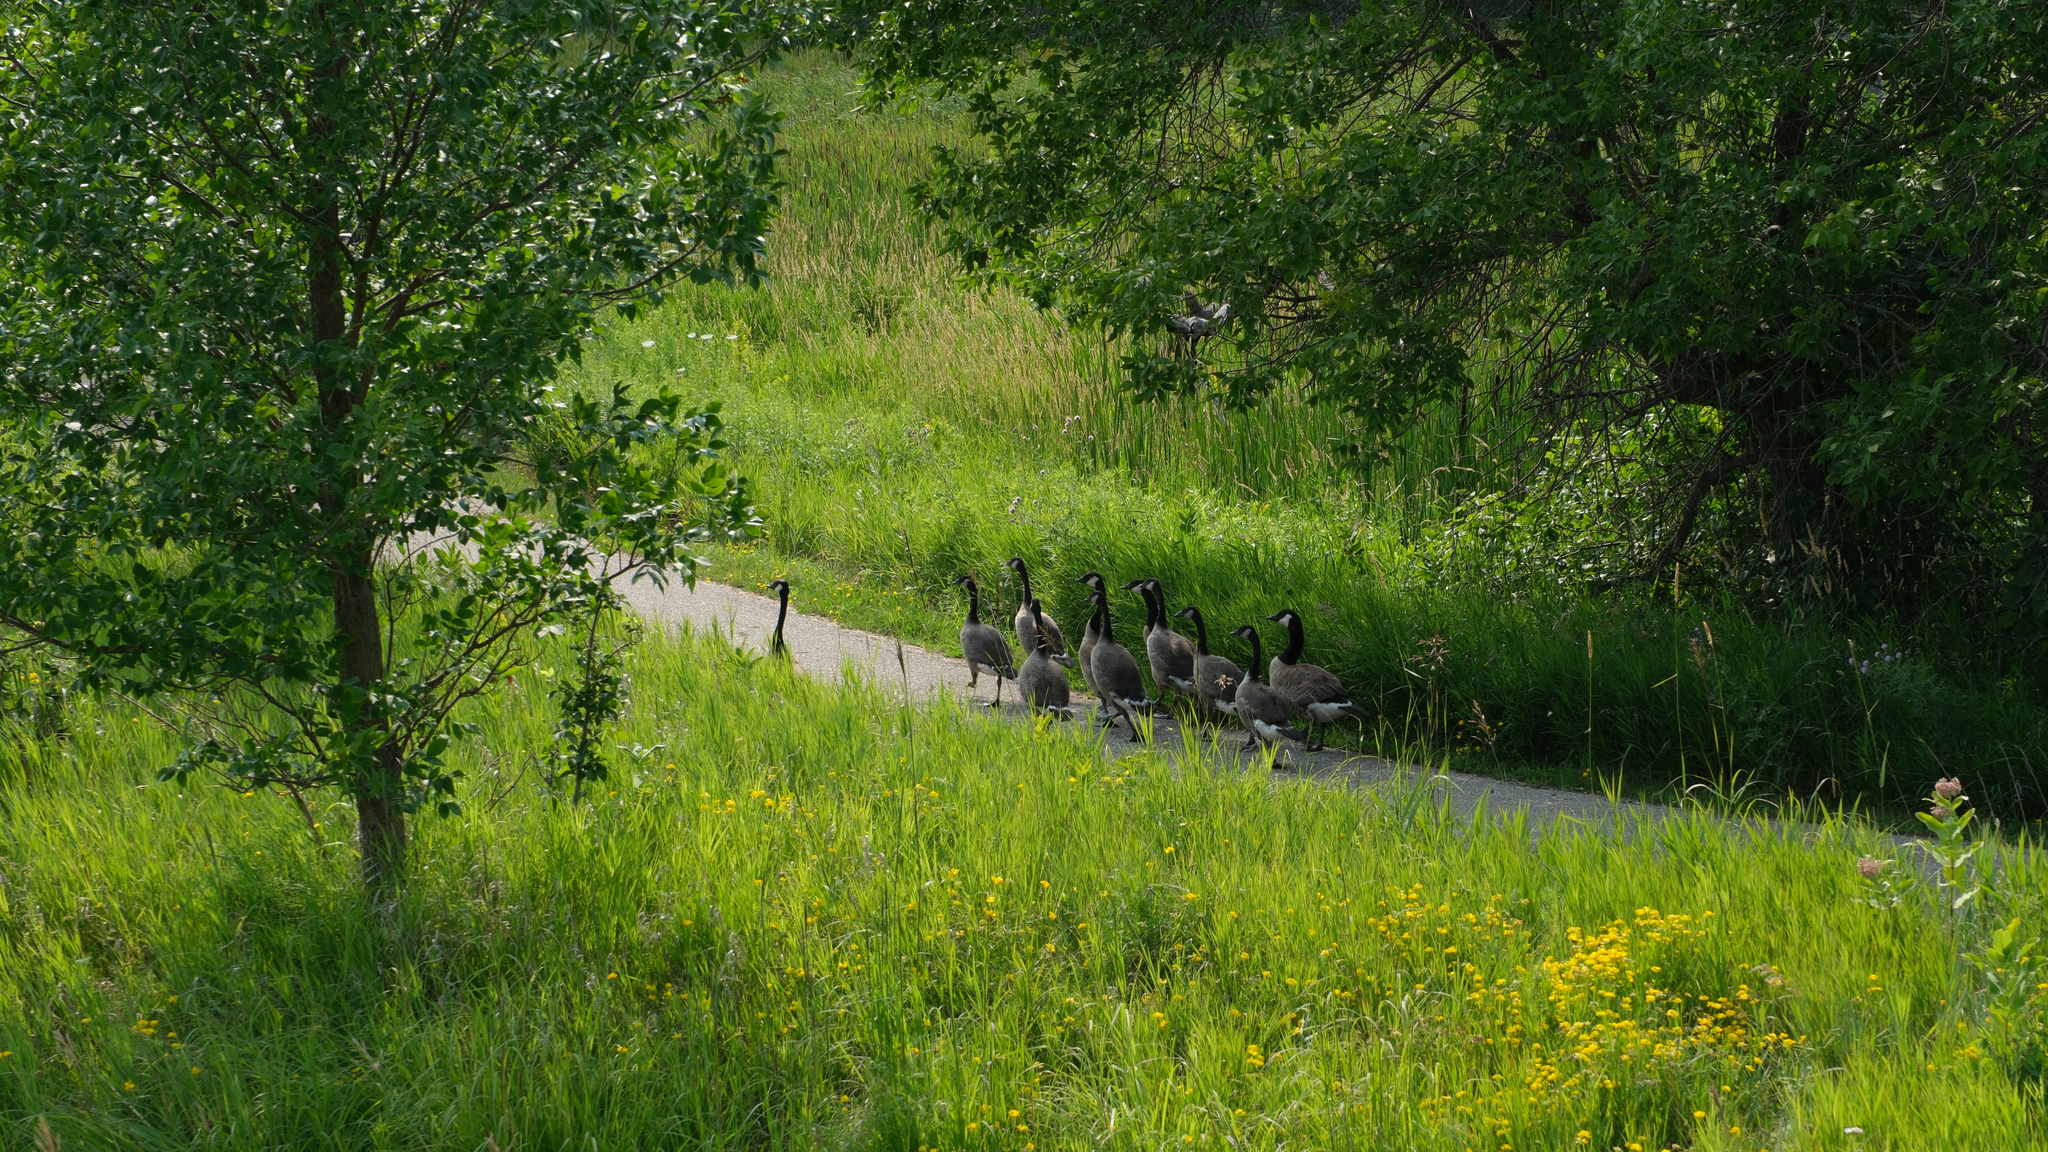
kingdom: Animalia
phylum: Chordata
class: Aves
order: Anseriformes
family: Anatidae
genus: Branta
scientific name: Branta canadensis
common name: Canada goose
